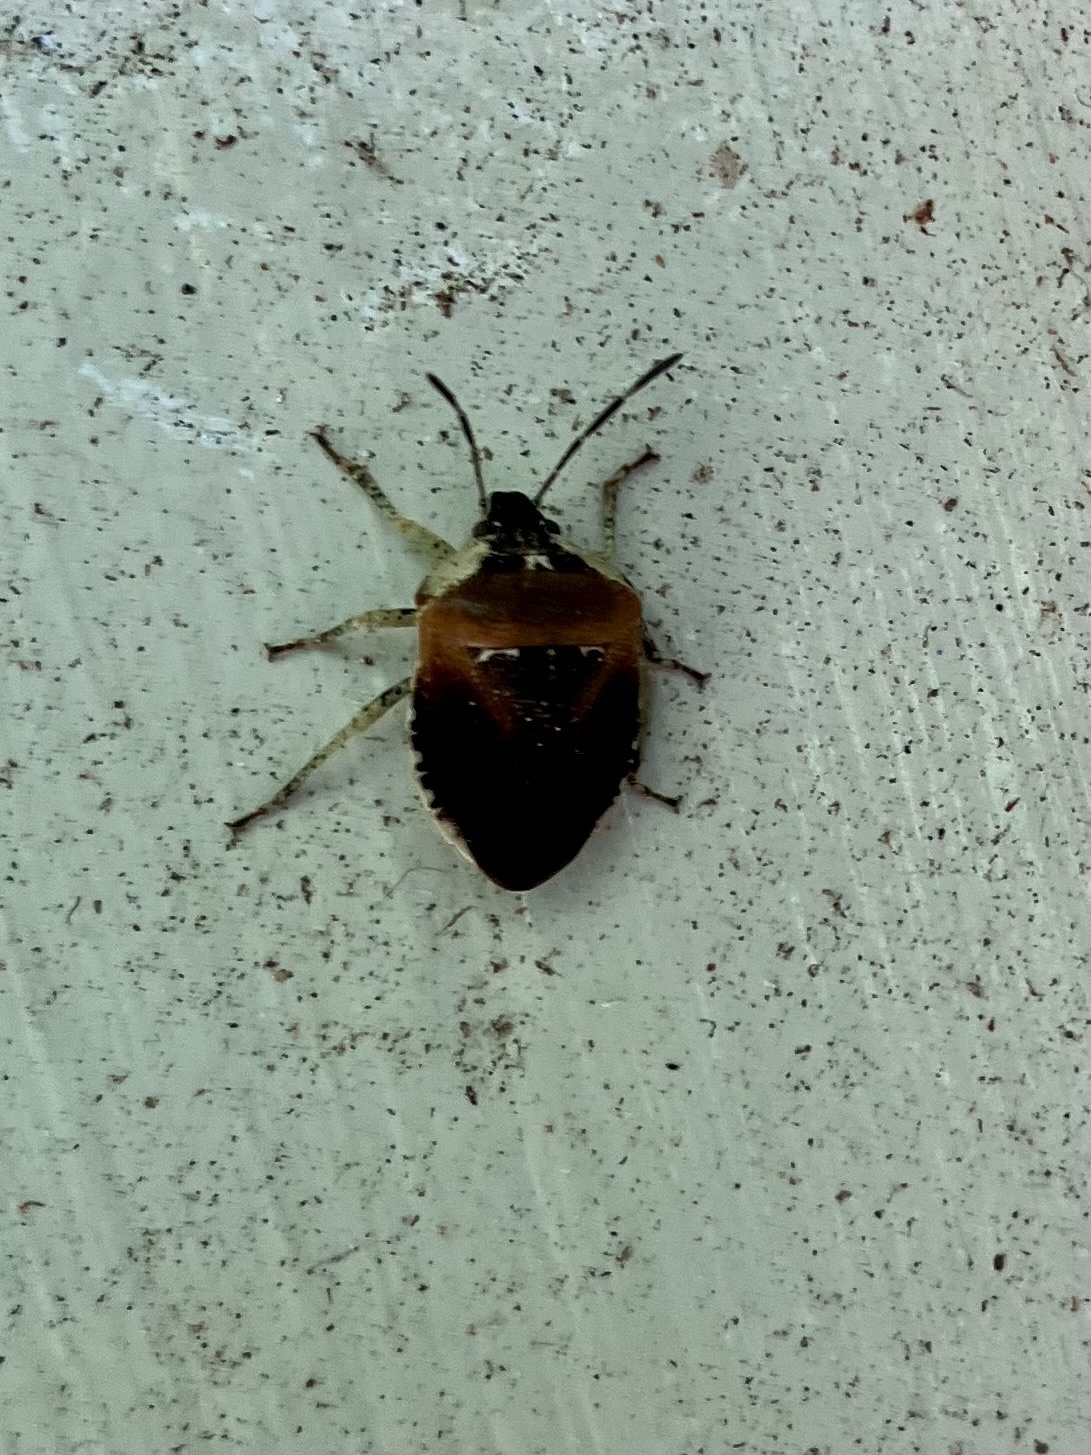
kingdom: Animalia
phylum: Arthropoda
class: Insecta
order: Hemiptera
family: Pentatomidae
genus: Monteithiella
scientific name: Monteithiella
